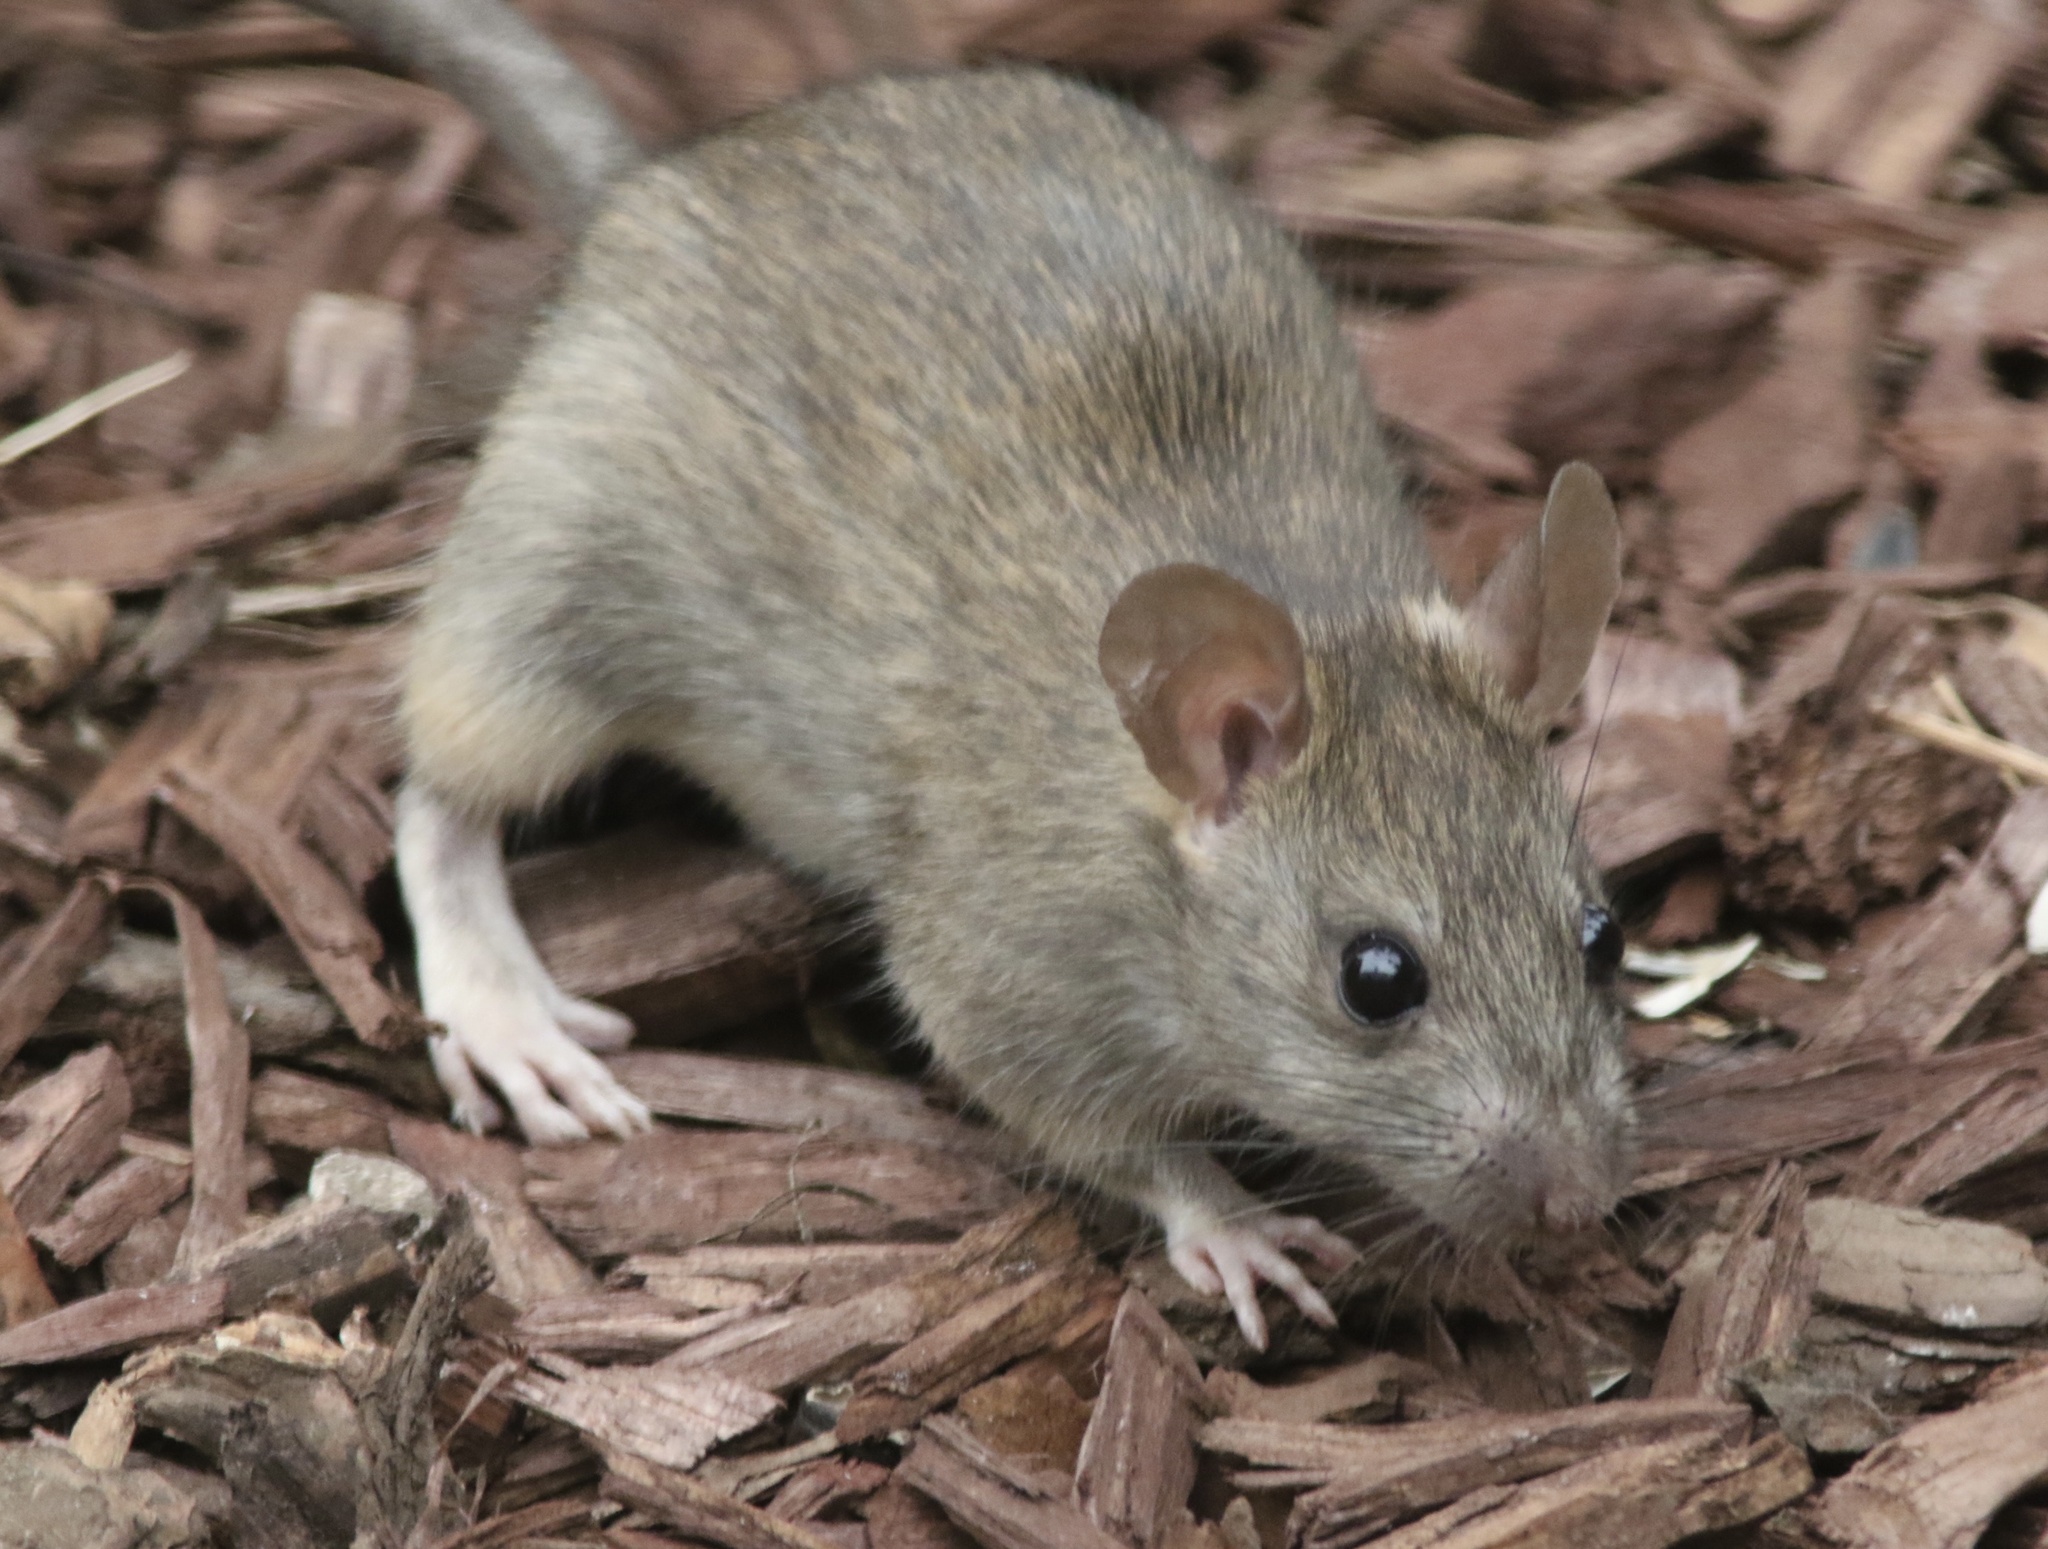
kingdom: Animalia
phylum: Chordata
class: Mammalia
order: Rodentia
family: Muridae
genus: Rattus
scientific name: Rattus rattus
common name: Black rat
